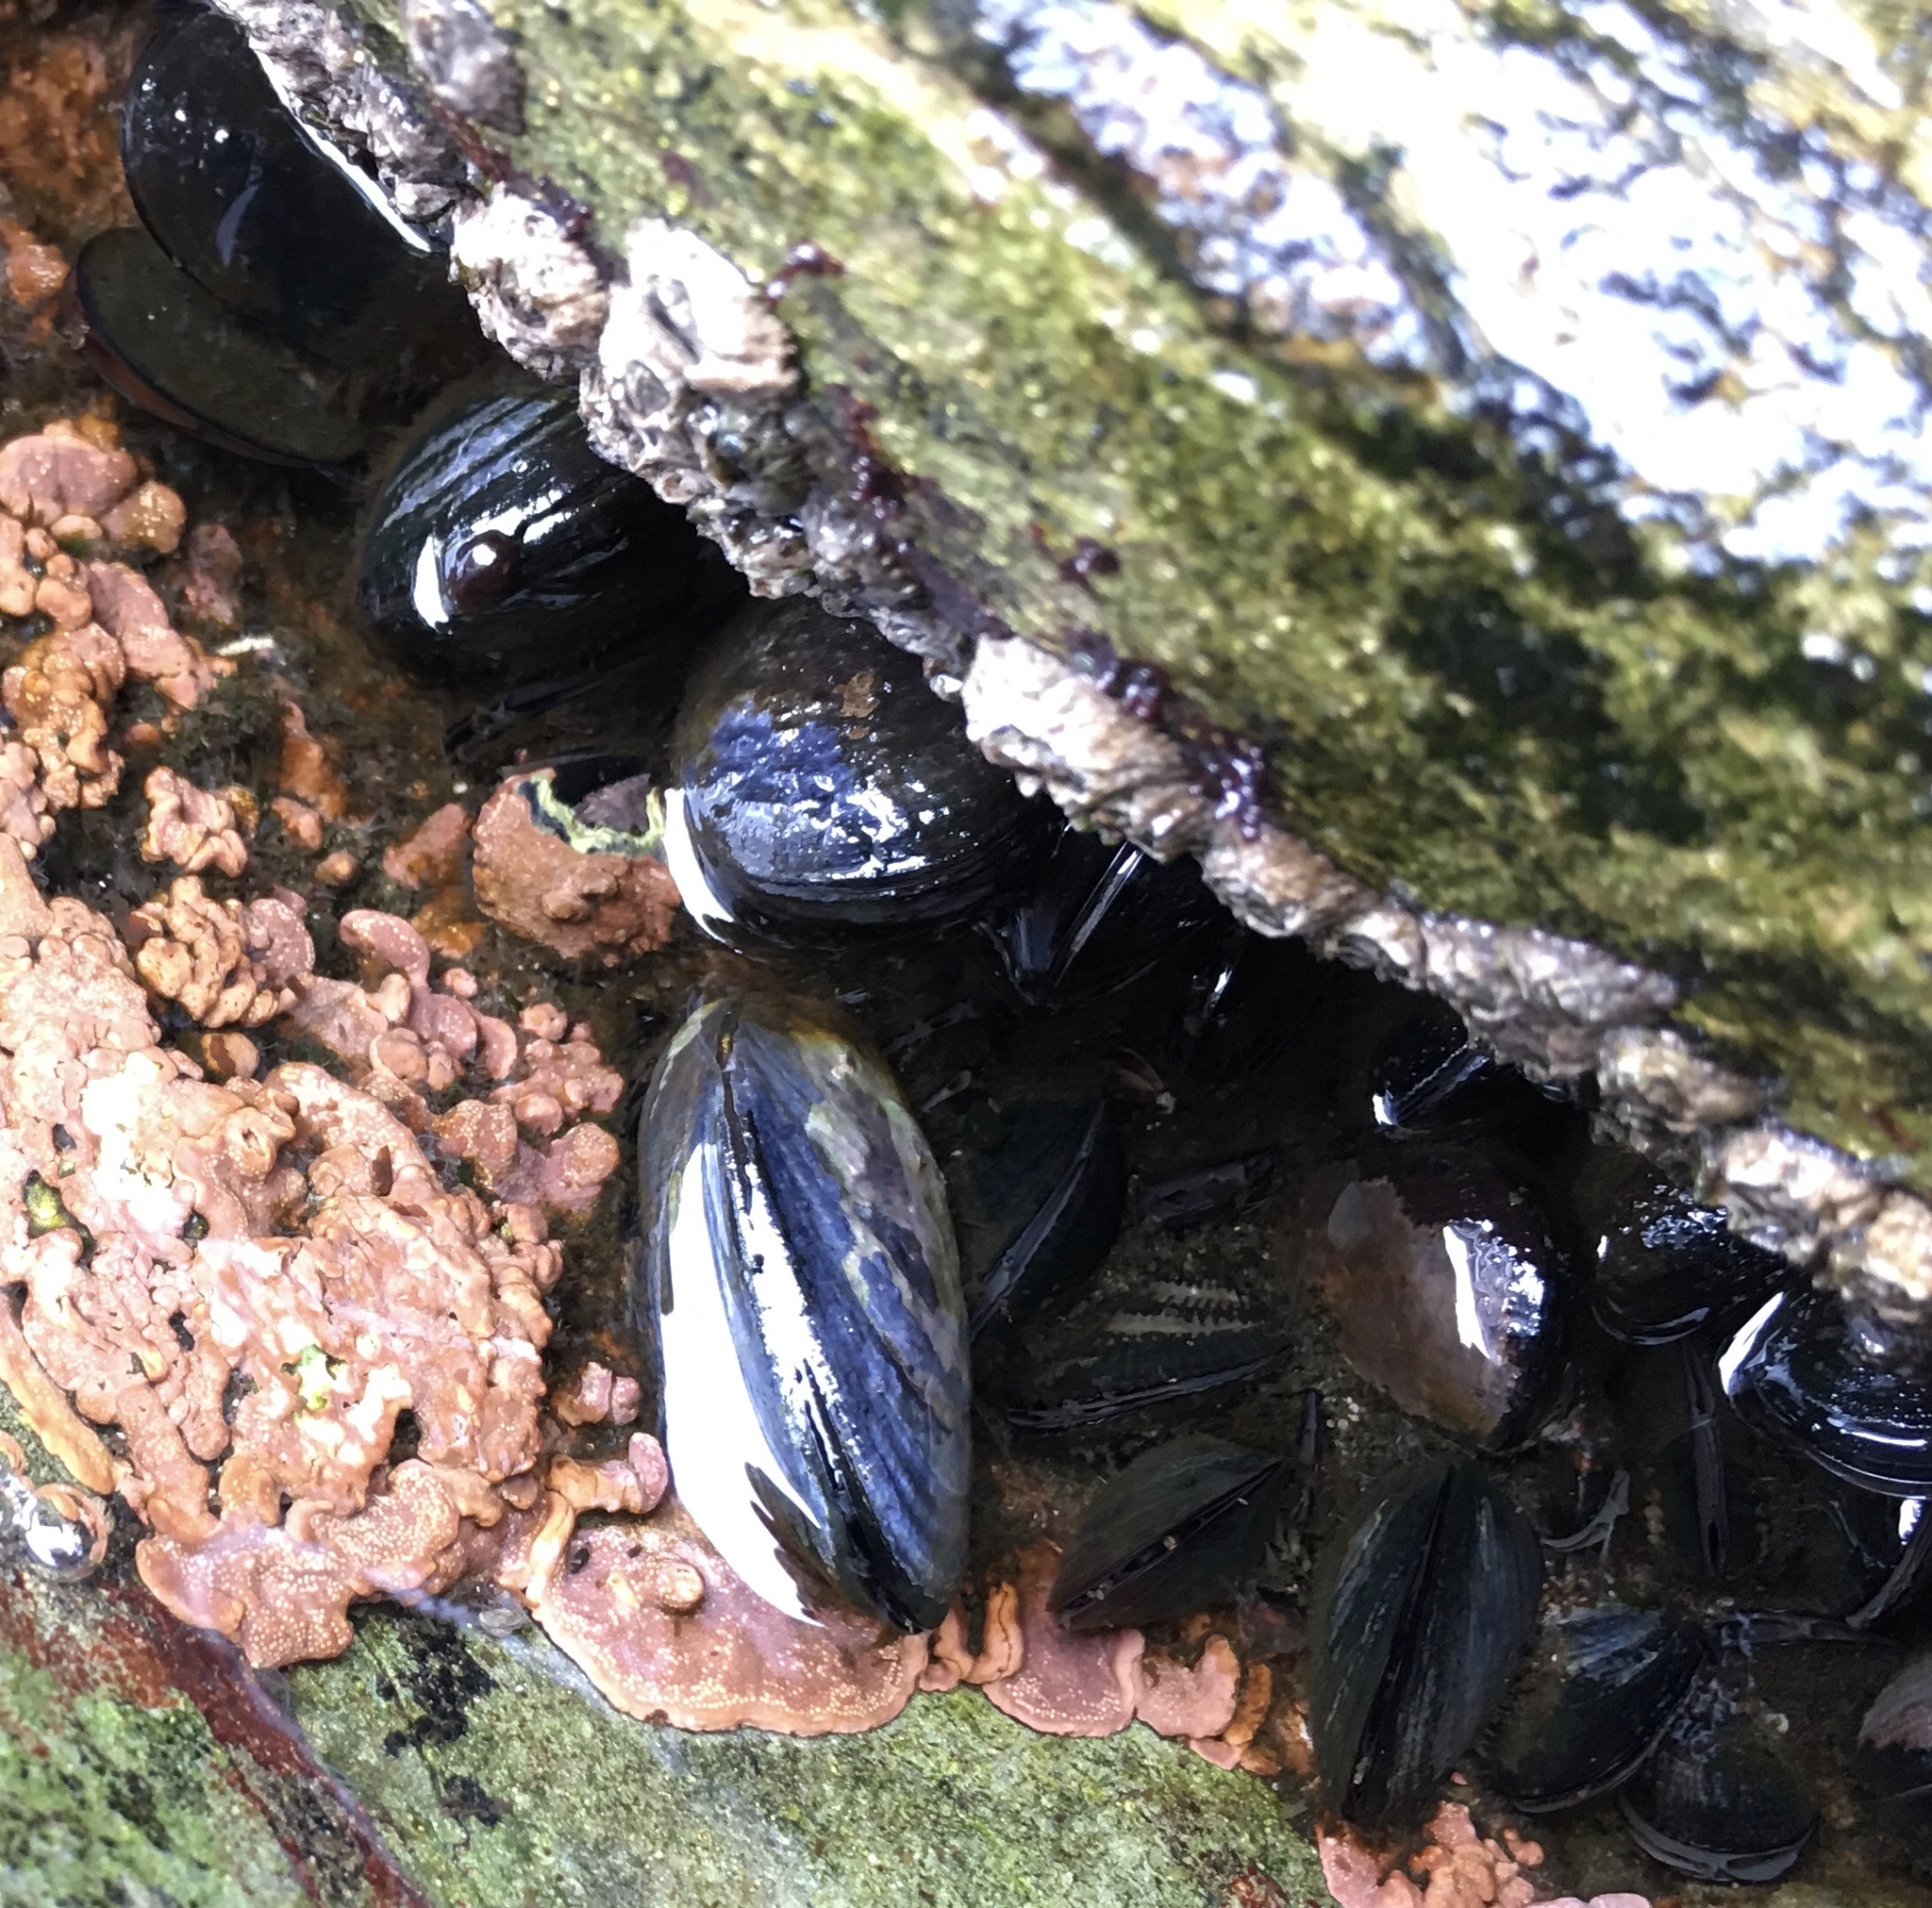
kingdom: Animalia
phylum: Mollusca
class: Bivalvia
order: Mytilida
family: Mytilidae
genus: Mytilus
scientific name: Mytilus chilensis
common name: Chilean mussel
